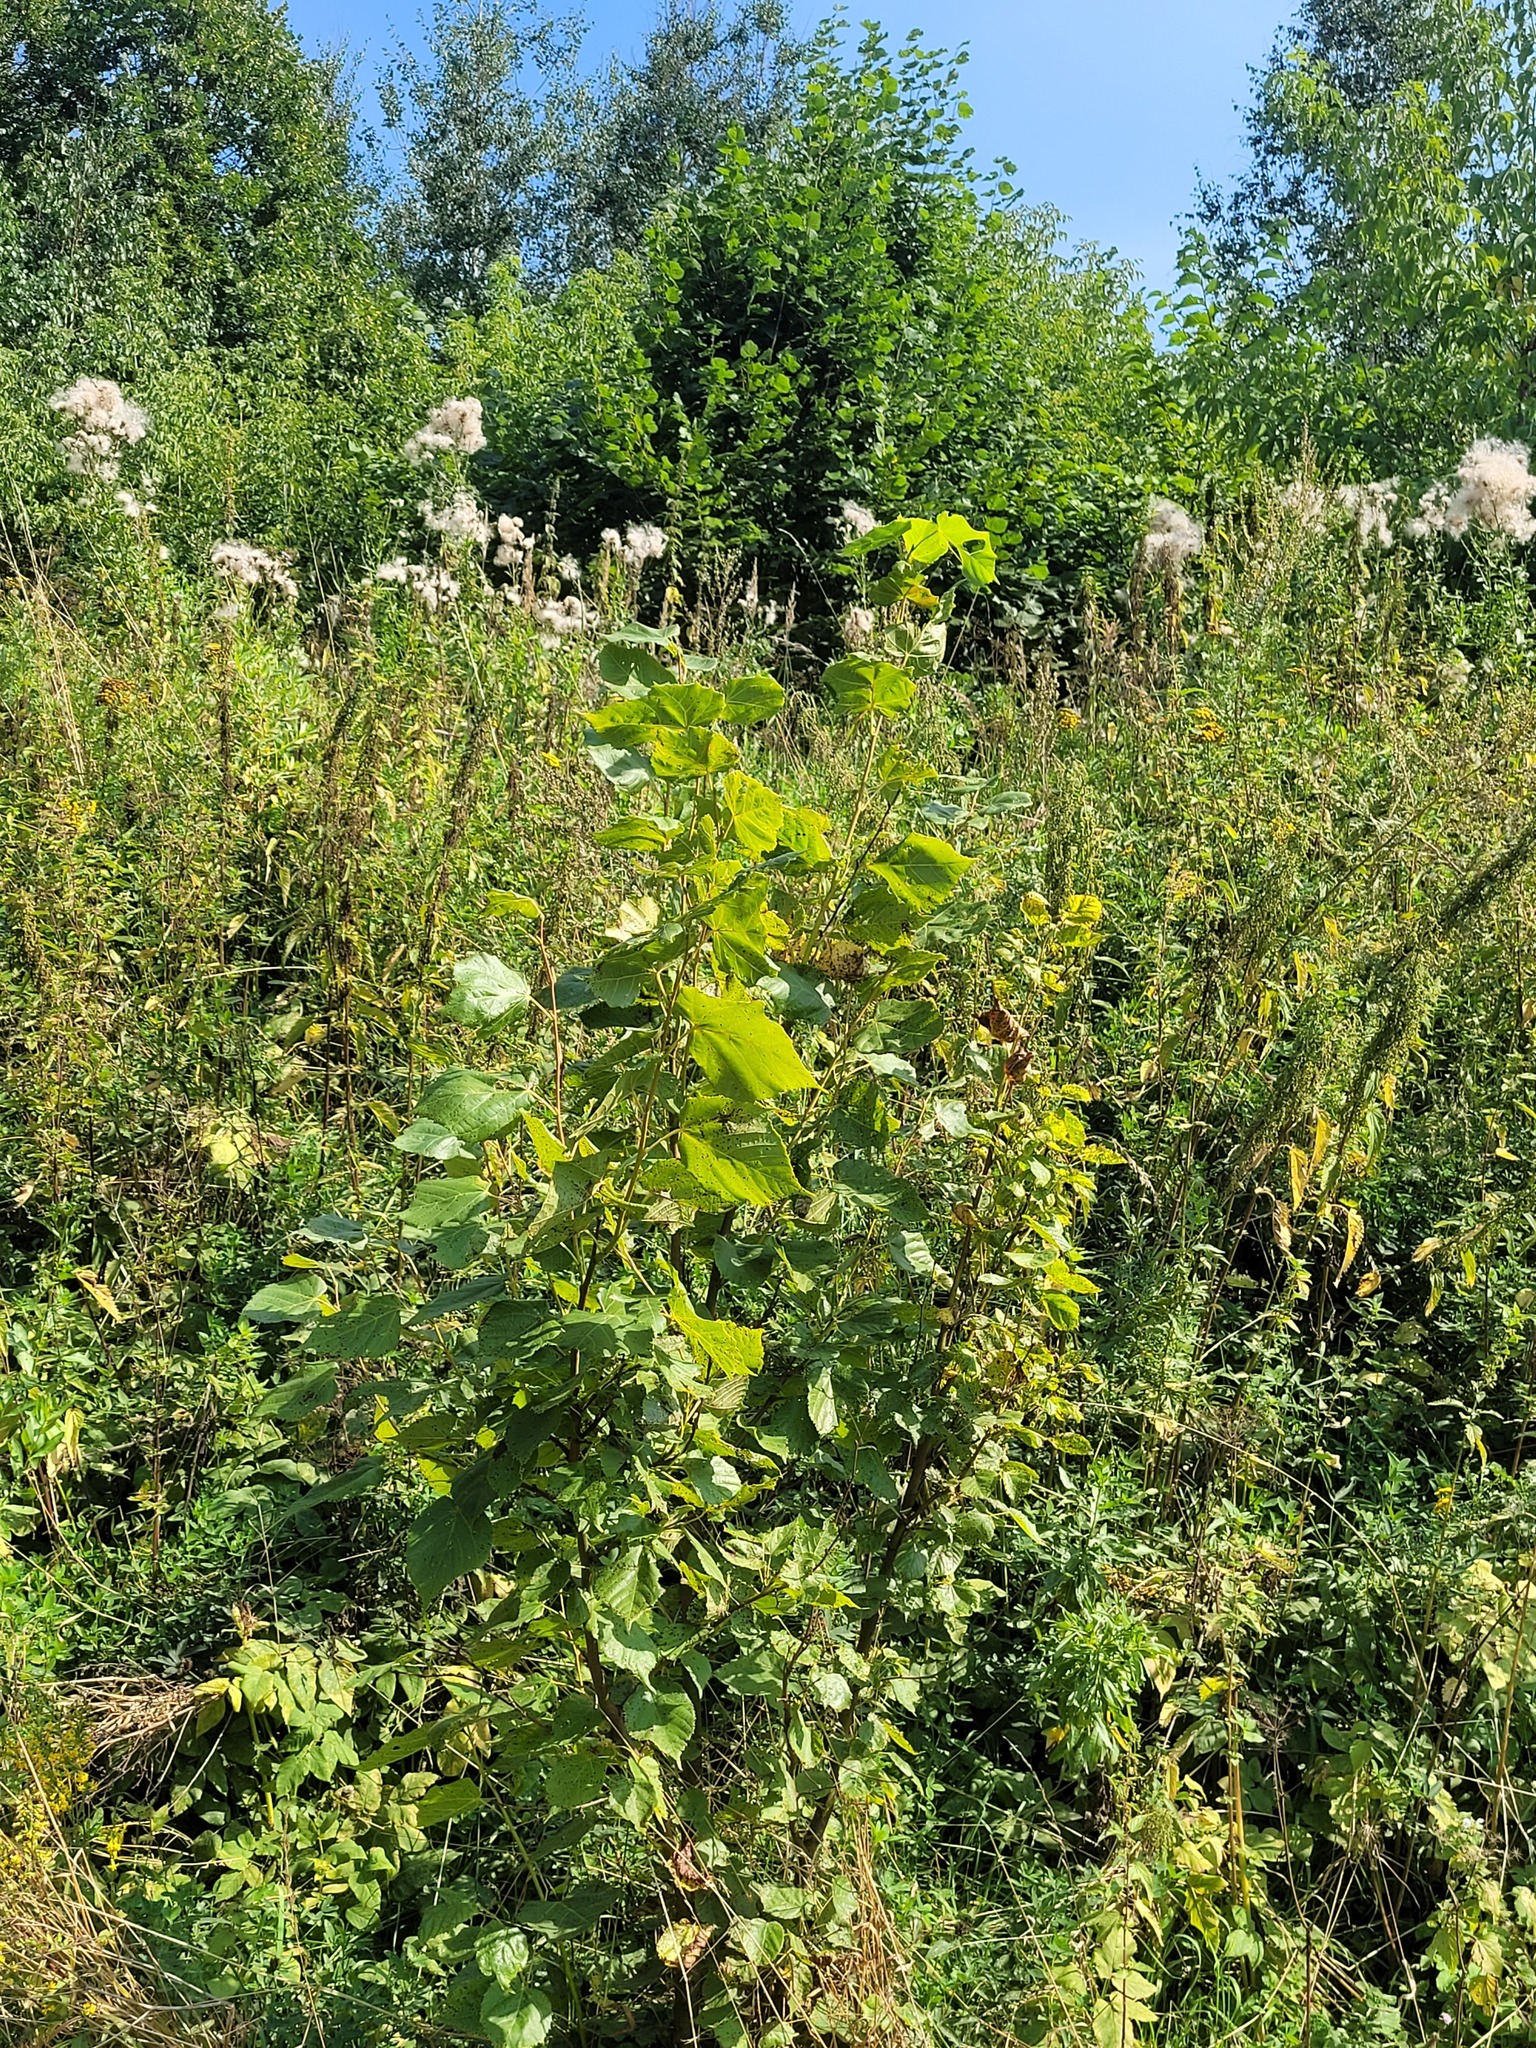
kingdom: Plantae
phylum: Tracheophyta
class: Magnoliopsida
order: Malvales
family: Malvaceae
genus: Tilia
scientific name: Tilia cordata
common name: Small-leaved lime
